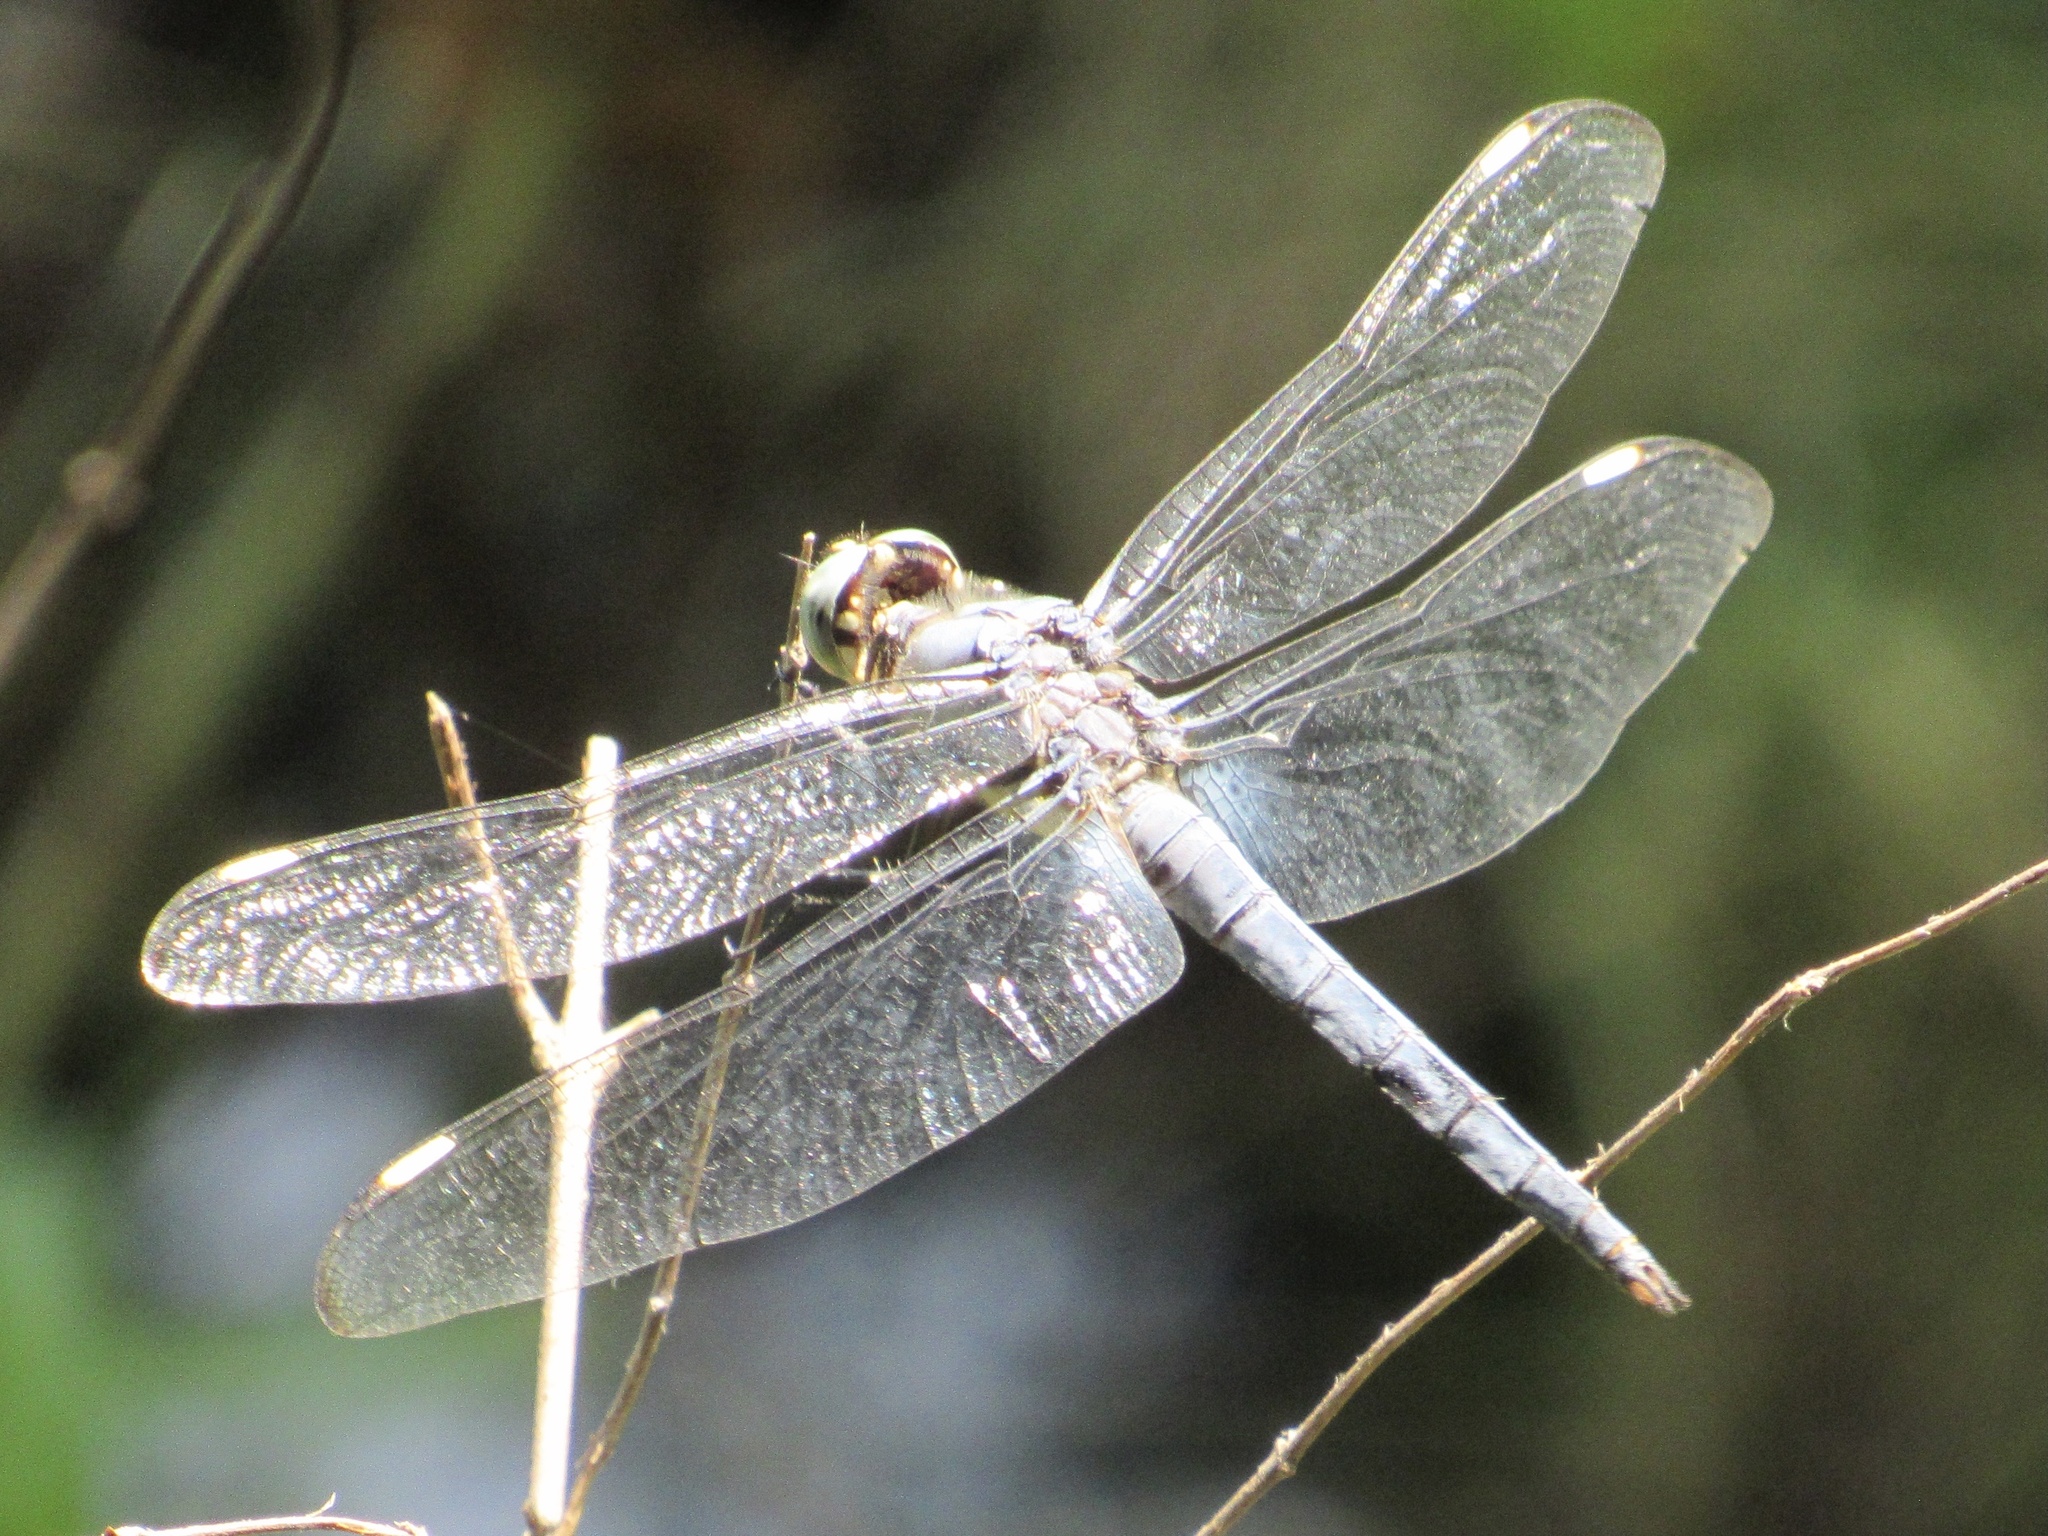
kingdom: Animalia
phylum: Arthropoda
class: Insecta
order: Odonata
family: Libellulidae
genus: Libellula
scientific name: Libellula comanche
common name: Comanche skimmer
